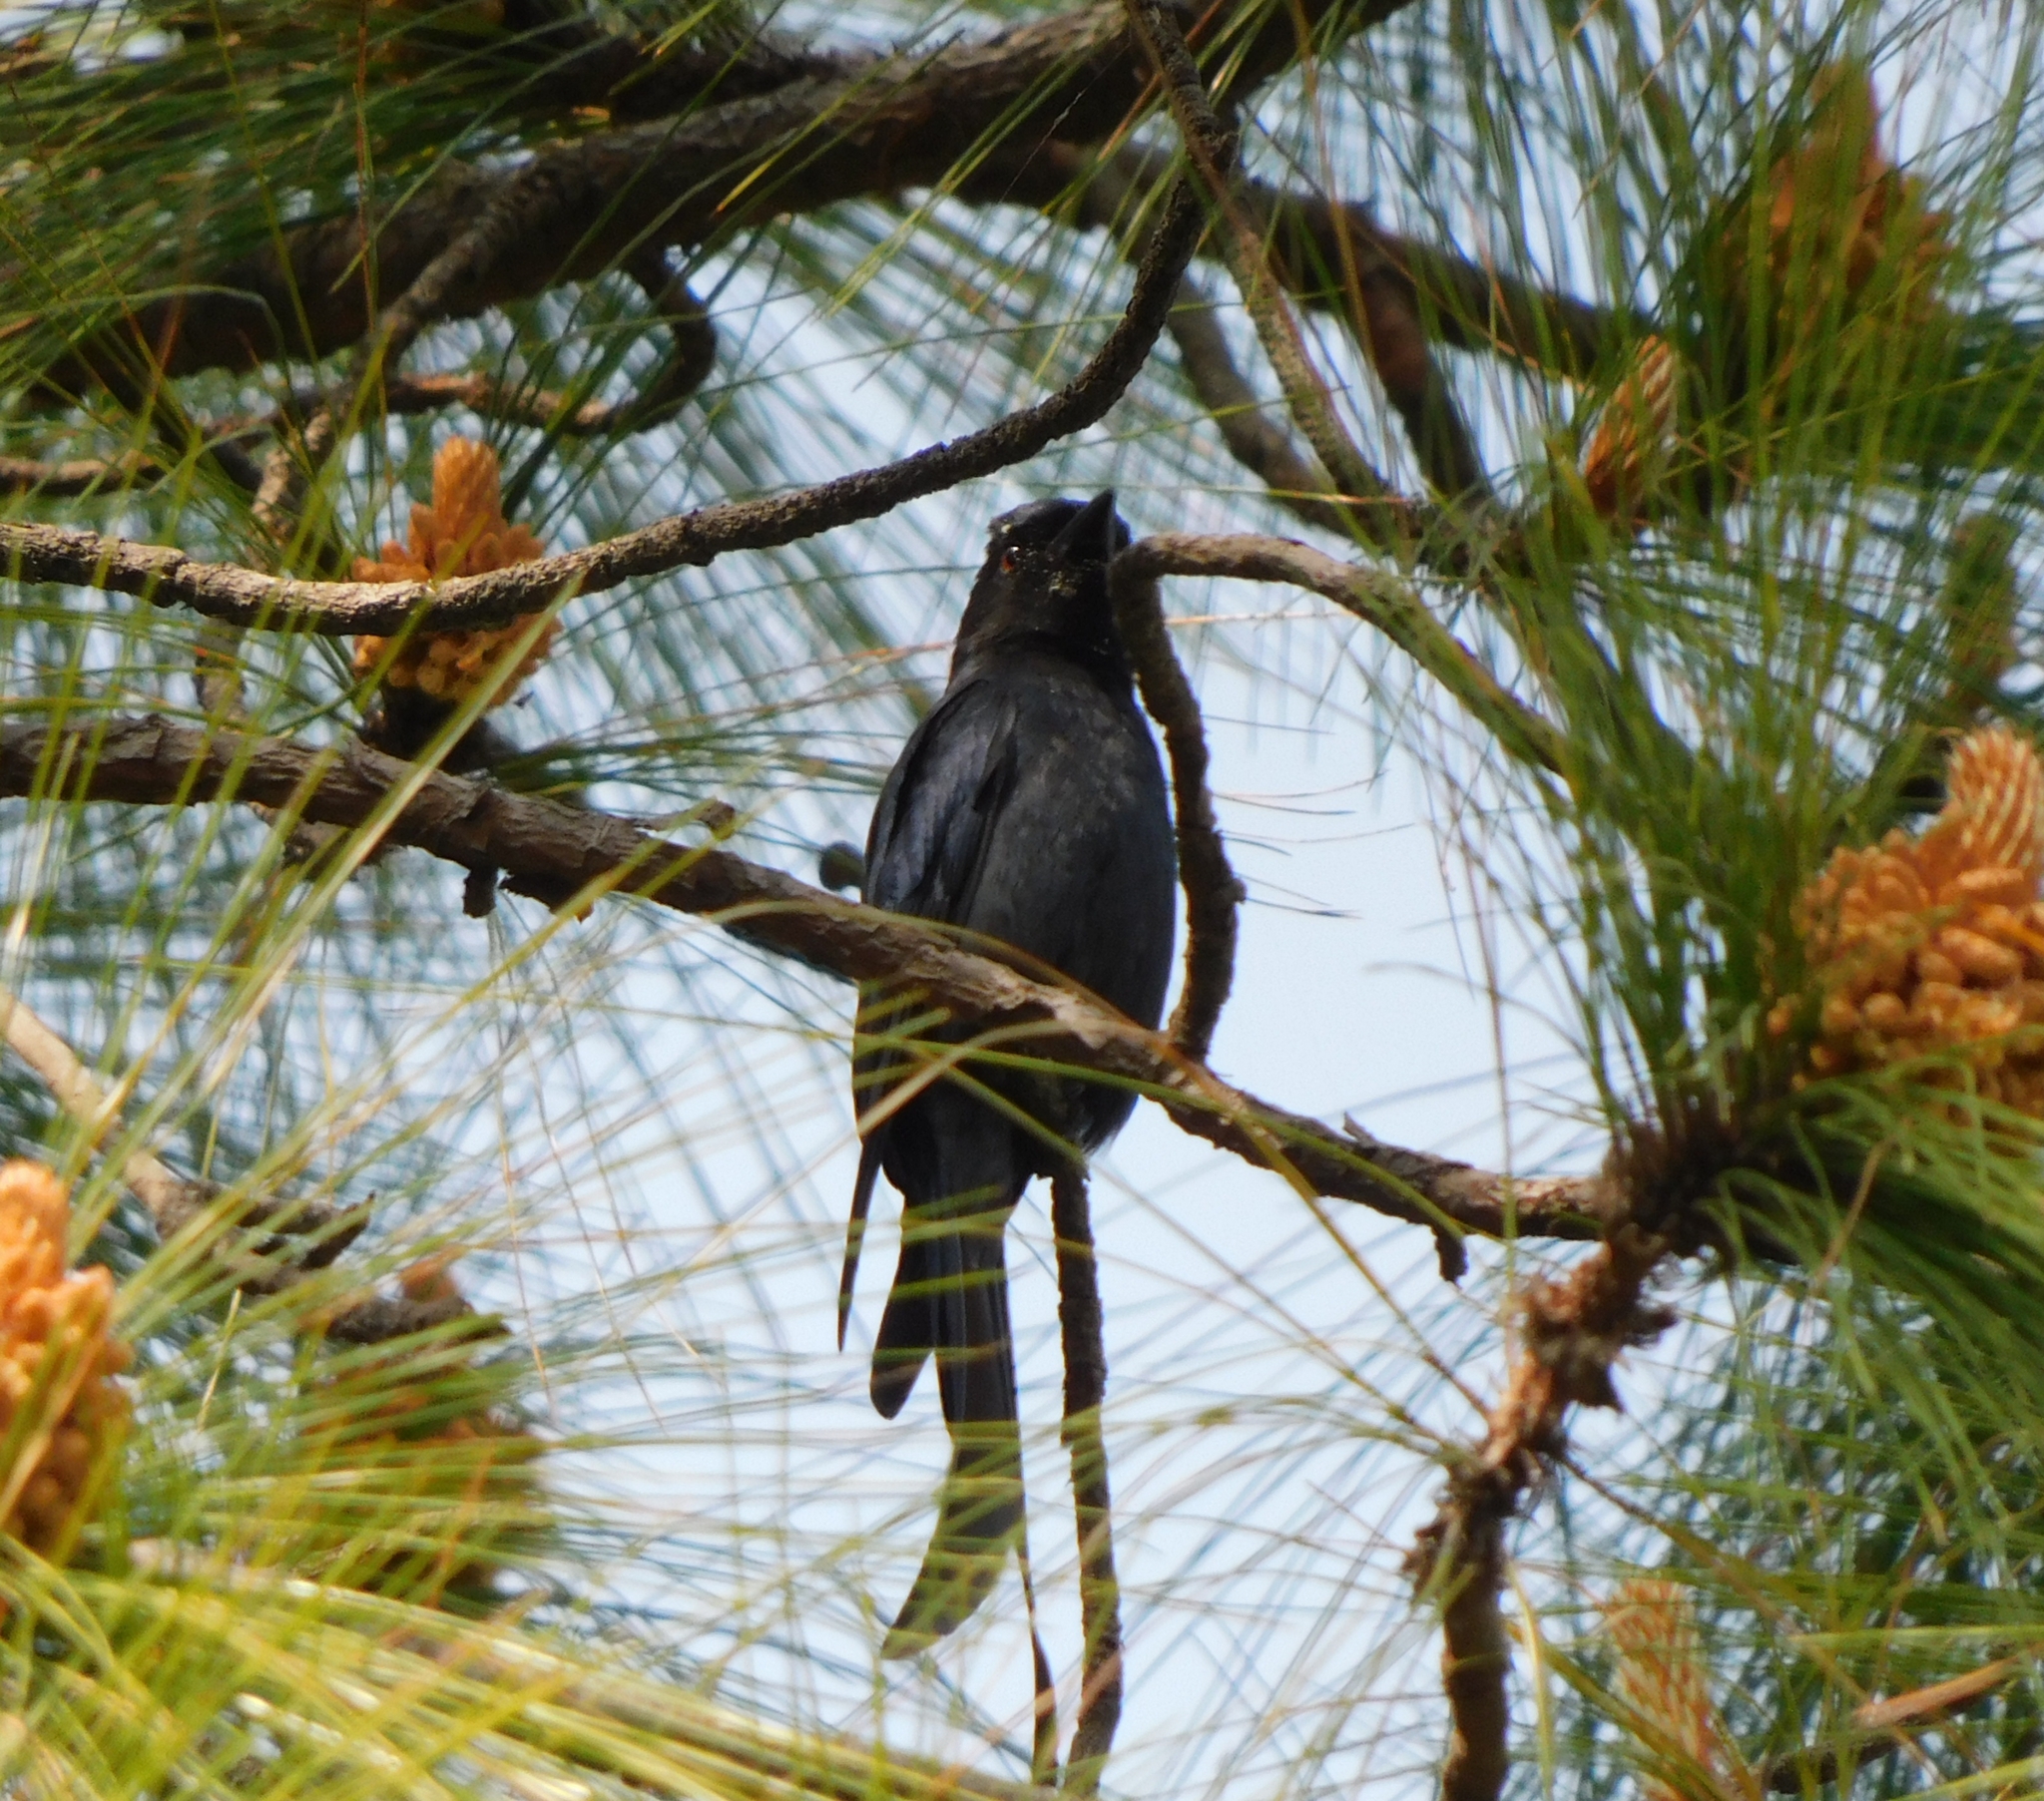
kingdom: Animalia
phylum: Chordata
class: Aves
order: Passeriformes
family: Dicruridae
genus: Dicrurus
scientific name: Dicrurus macrocercus
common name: Black drongo
